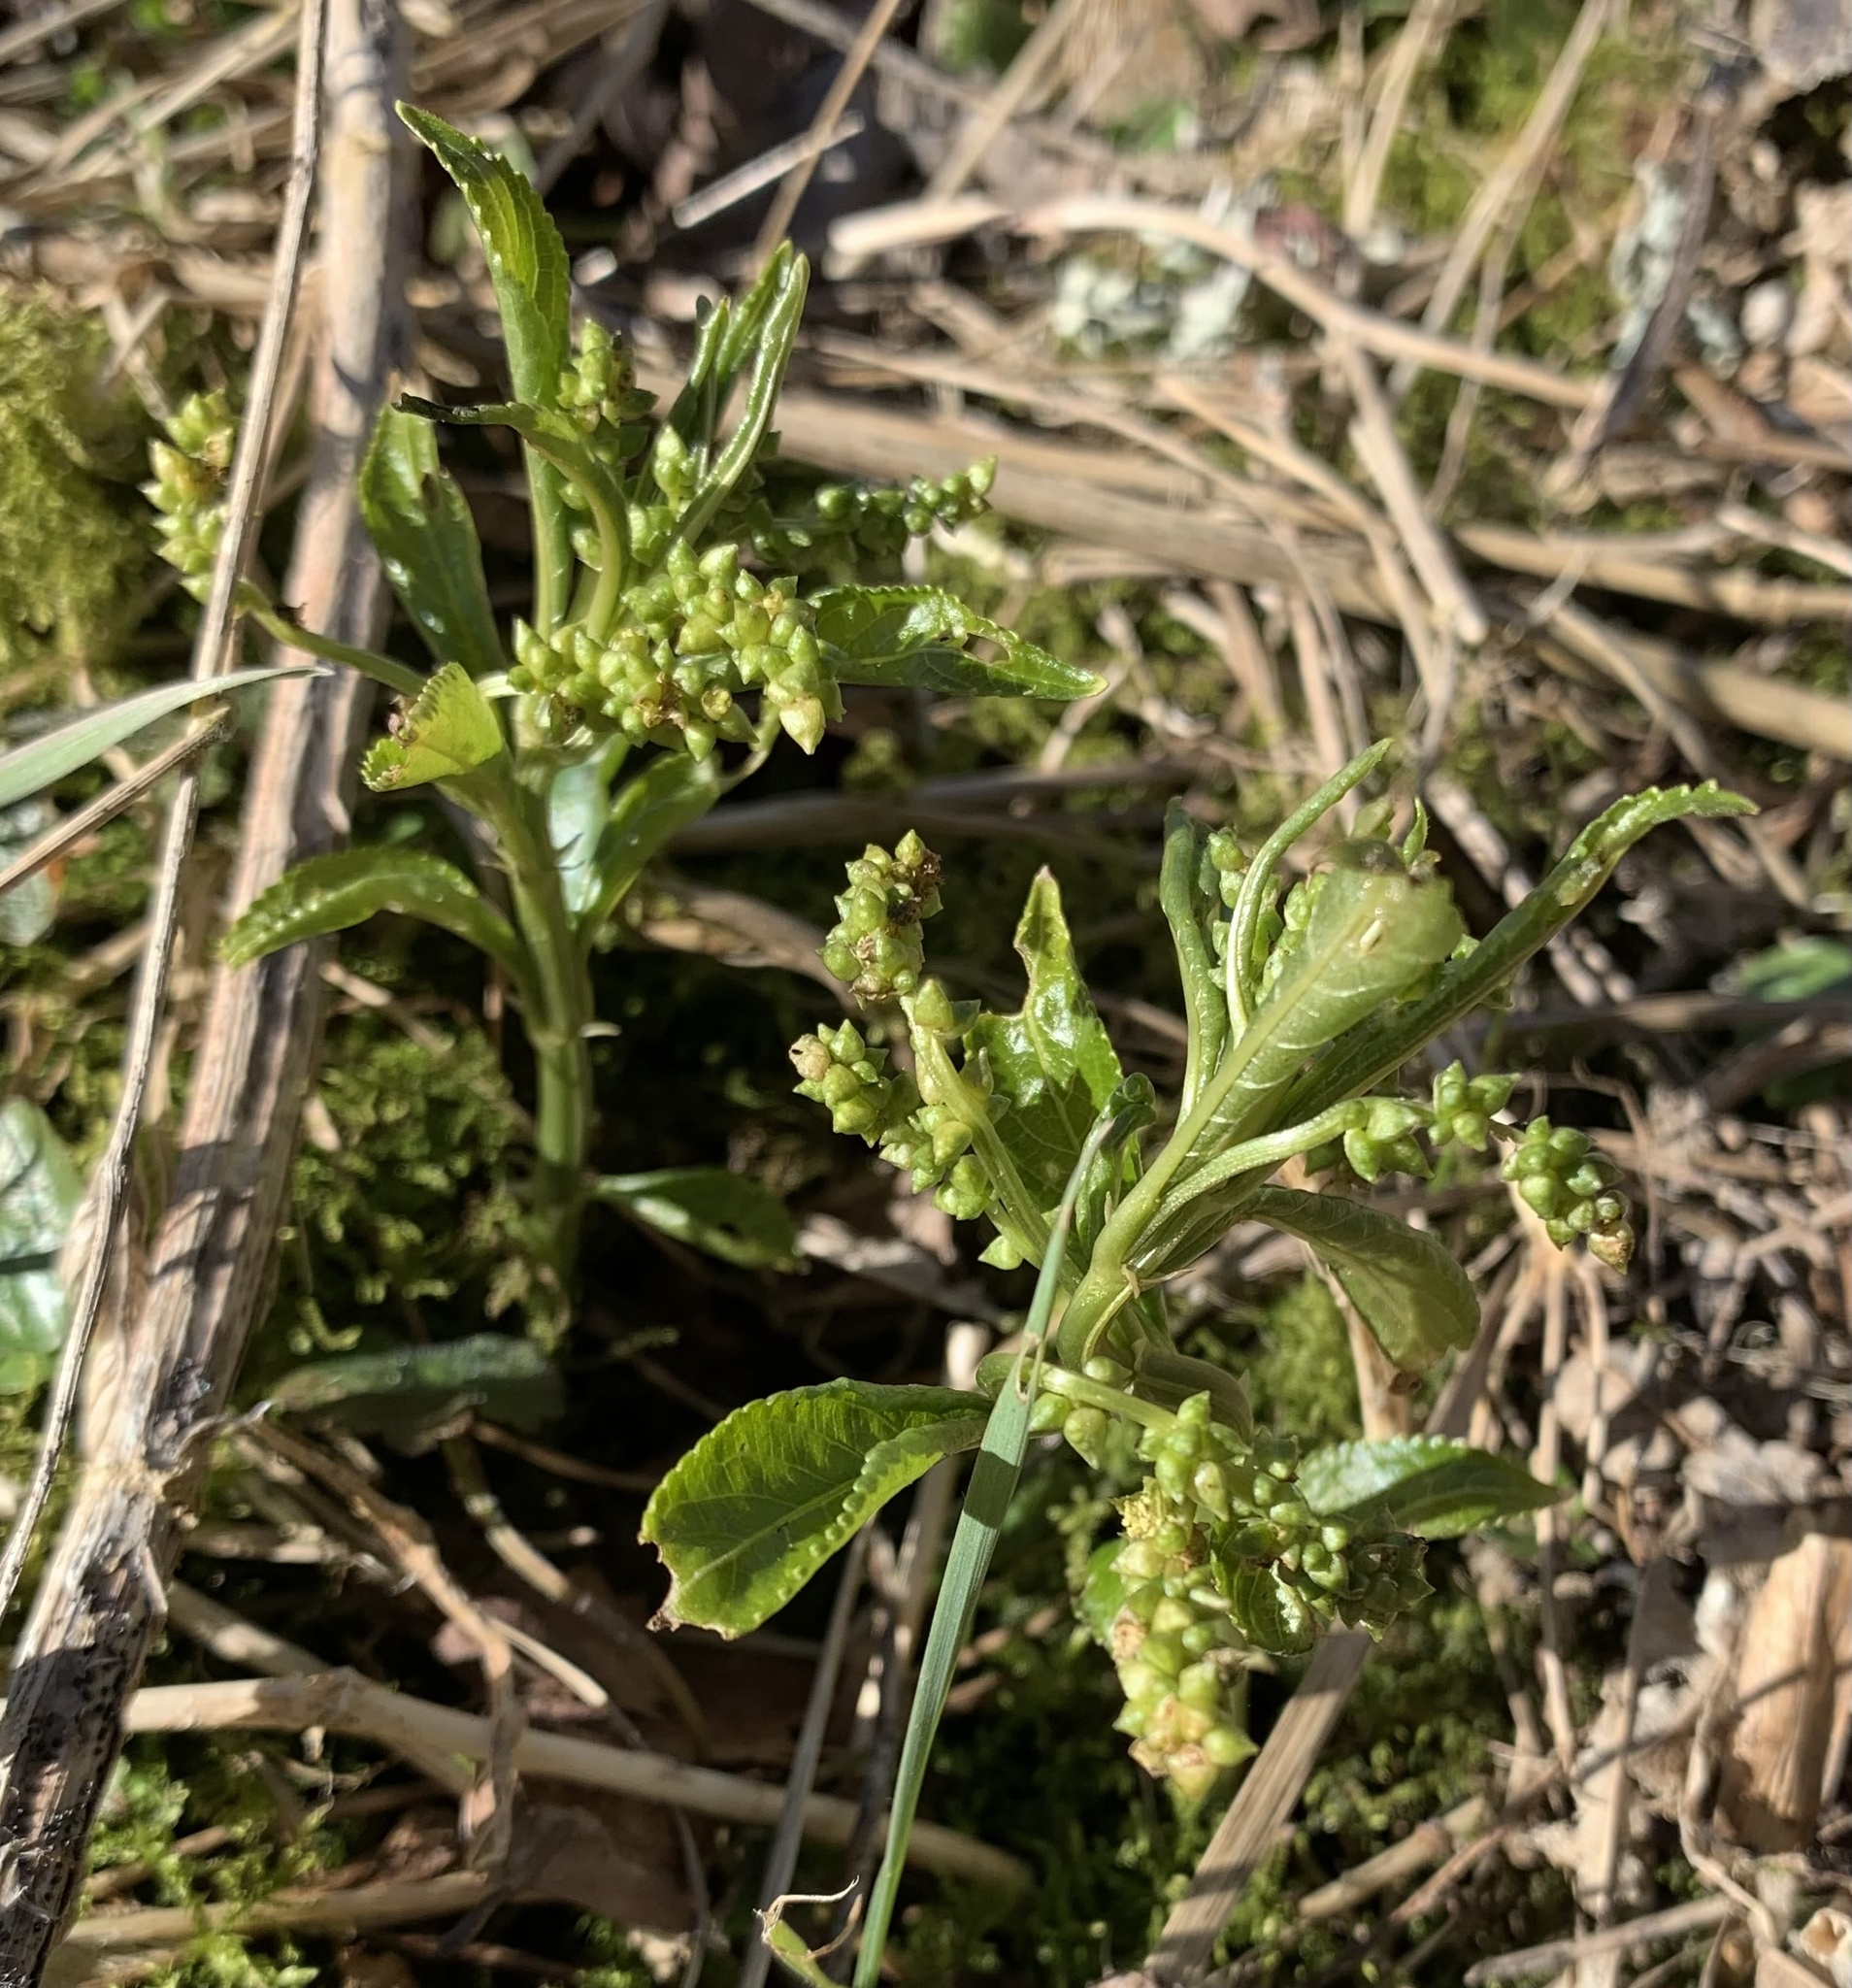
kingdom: Plantae
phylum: Tracheophyta
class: Magnoliopsida
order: Malpighiales
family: Euphorbiaceae
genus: Mercurialis
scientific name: Mercurialis perennis
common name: Dog mercury
